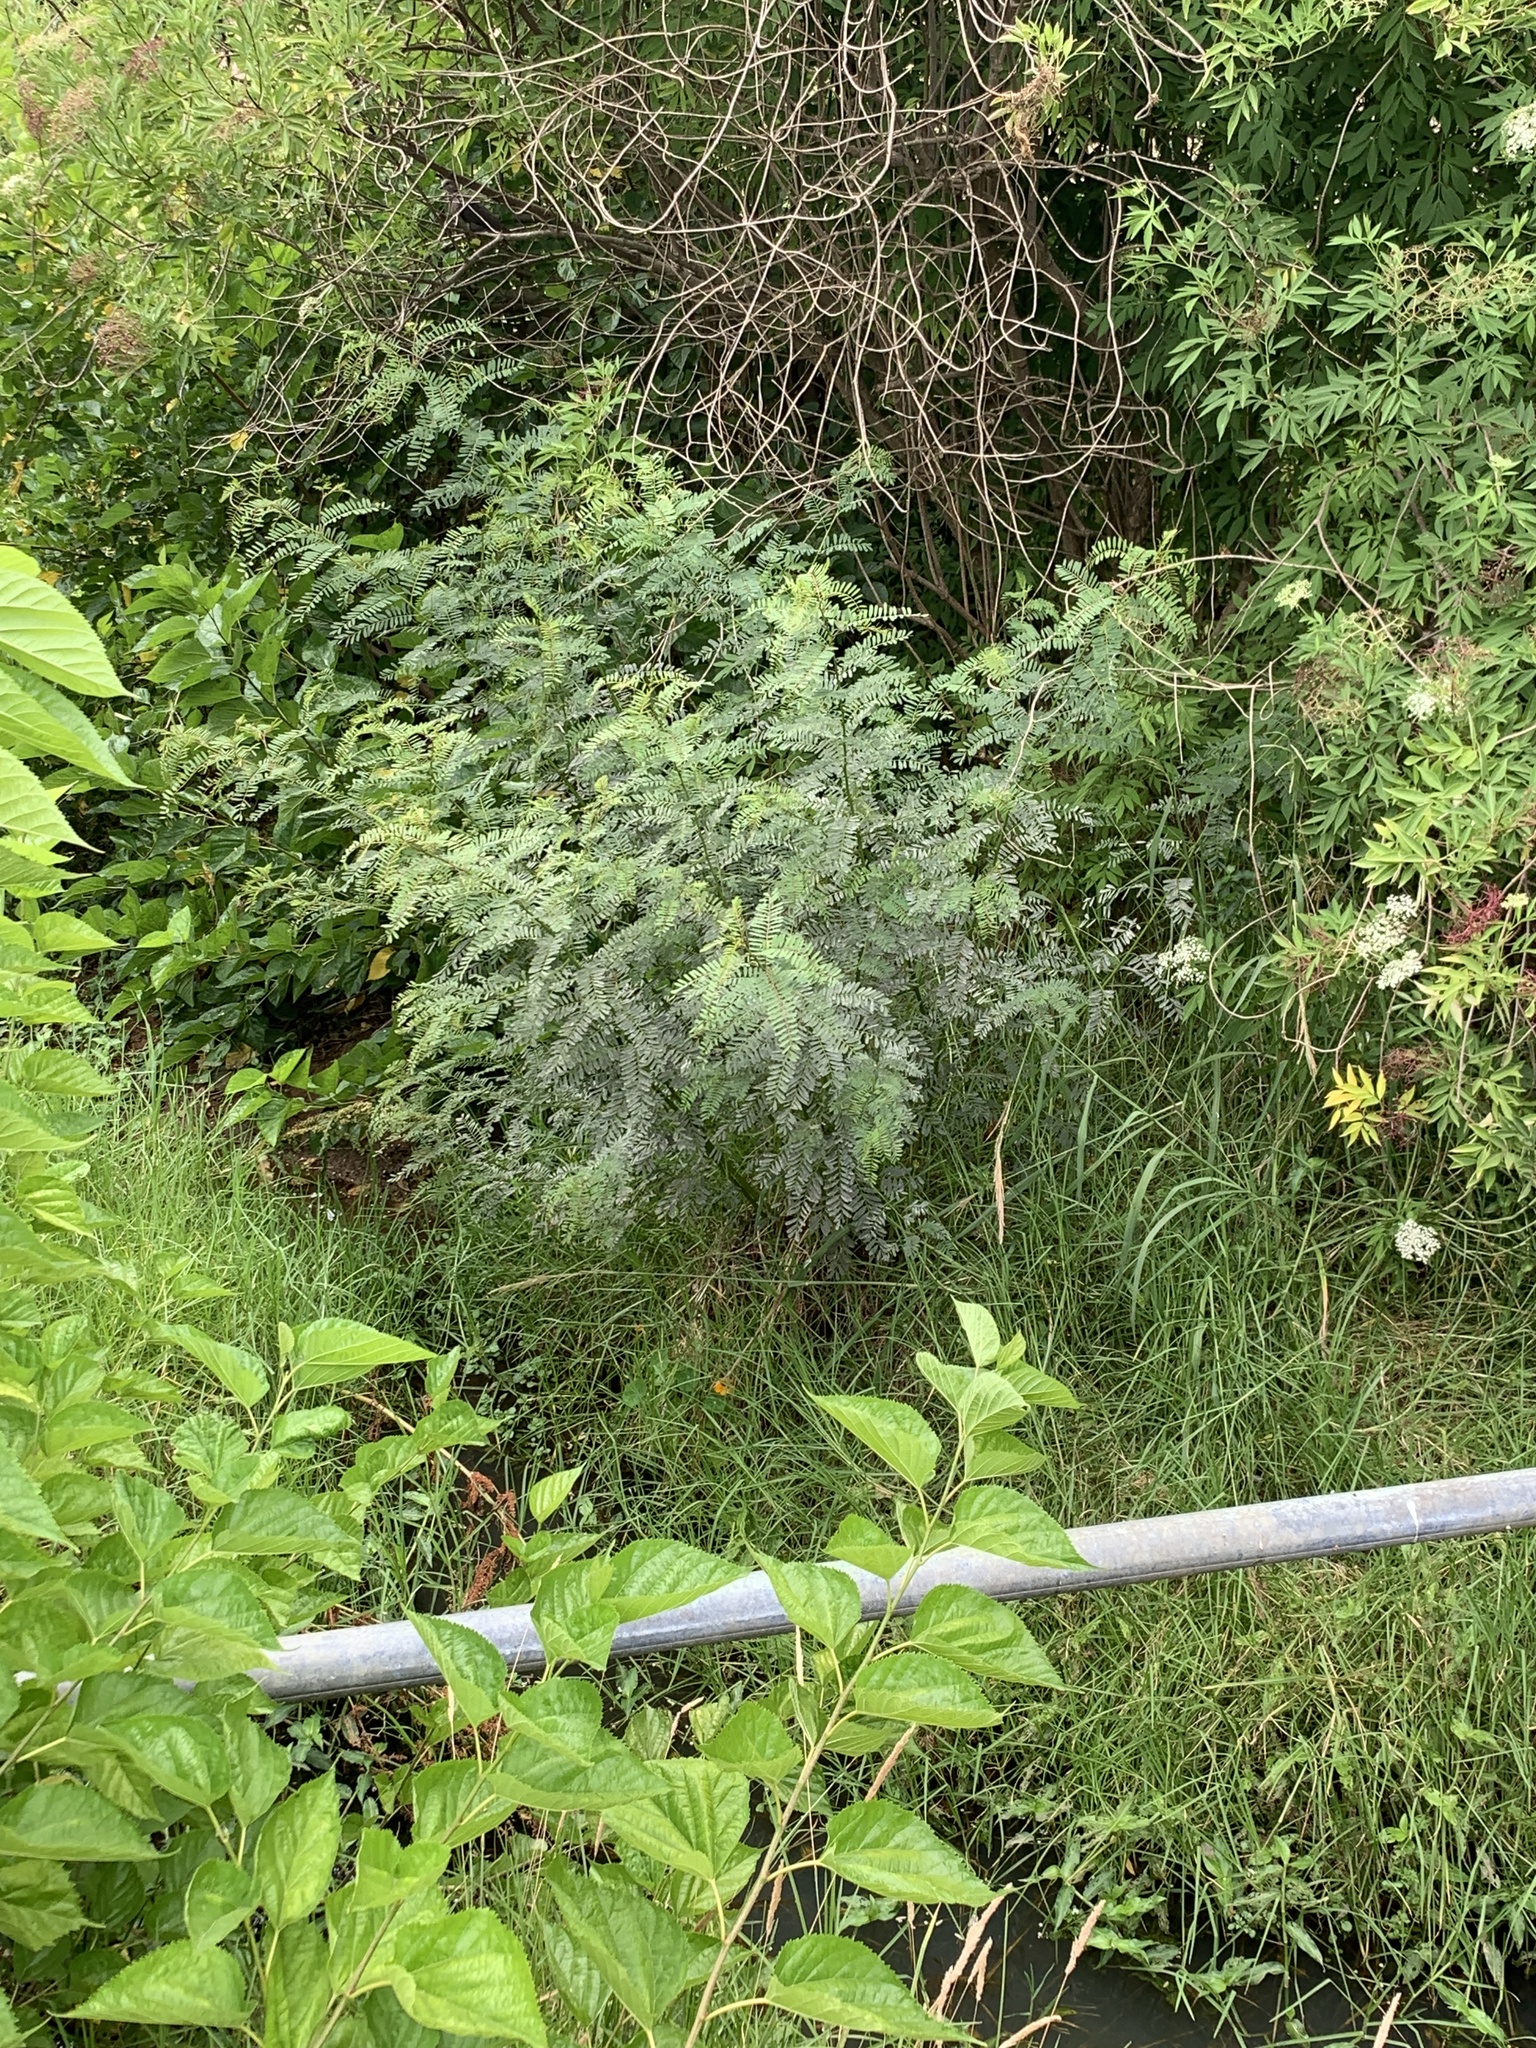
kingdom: Plantae
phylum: Tracheophyta
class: Magnoliopsida
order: Fabales
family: Fabaceae
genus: Sesbania
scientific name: Sesbania punicea
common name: Rattlebox
